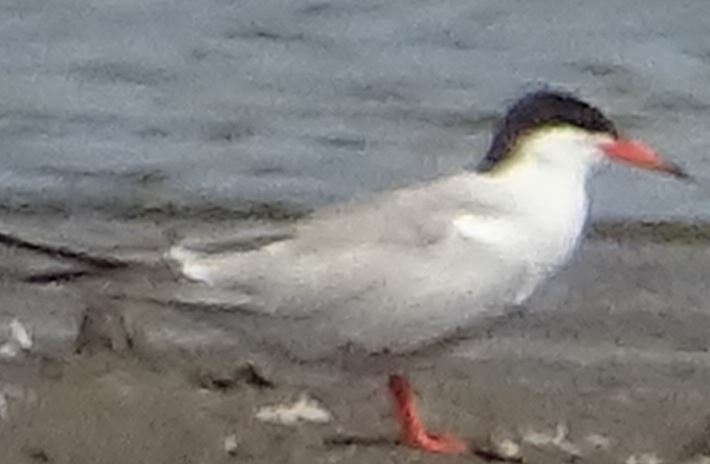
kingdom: Animalia
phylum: Chordata
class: Aves
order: Charadriiformes
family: Laridae
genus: Sterna
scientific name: Sterna hirundo
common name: Common tern
